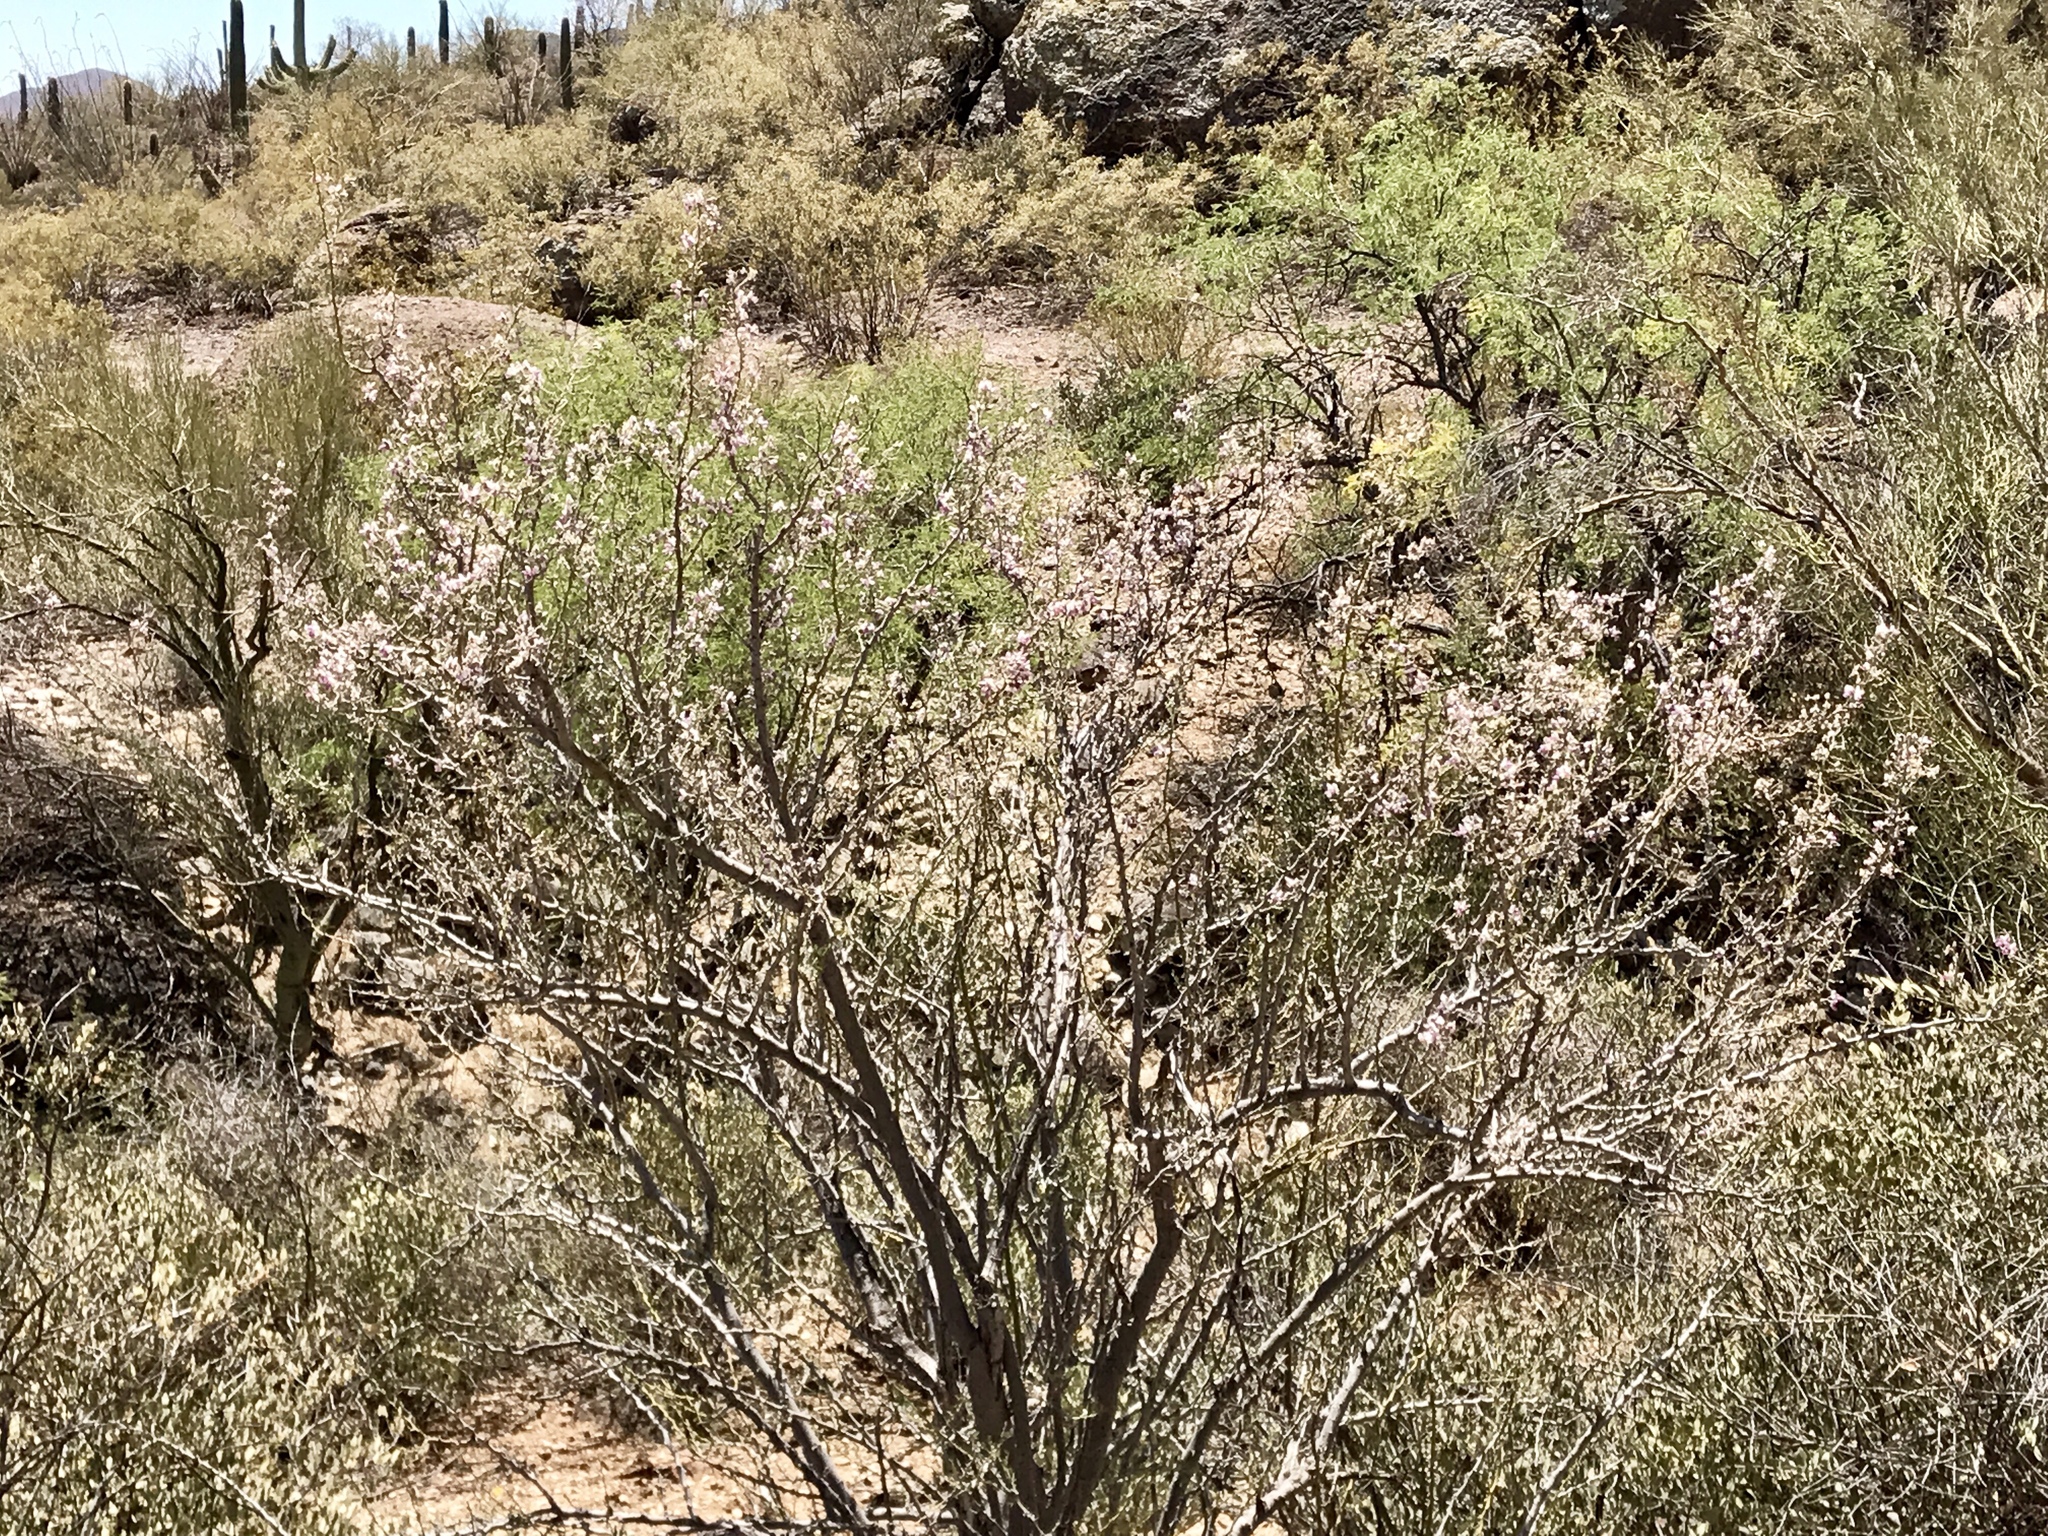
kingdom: Plantae
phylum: Tracheophyta
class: Magnoliopsida
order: Fabales
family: Fabaceae
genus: Olneya
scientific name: Olneya tesota
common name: Desert ironwood
